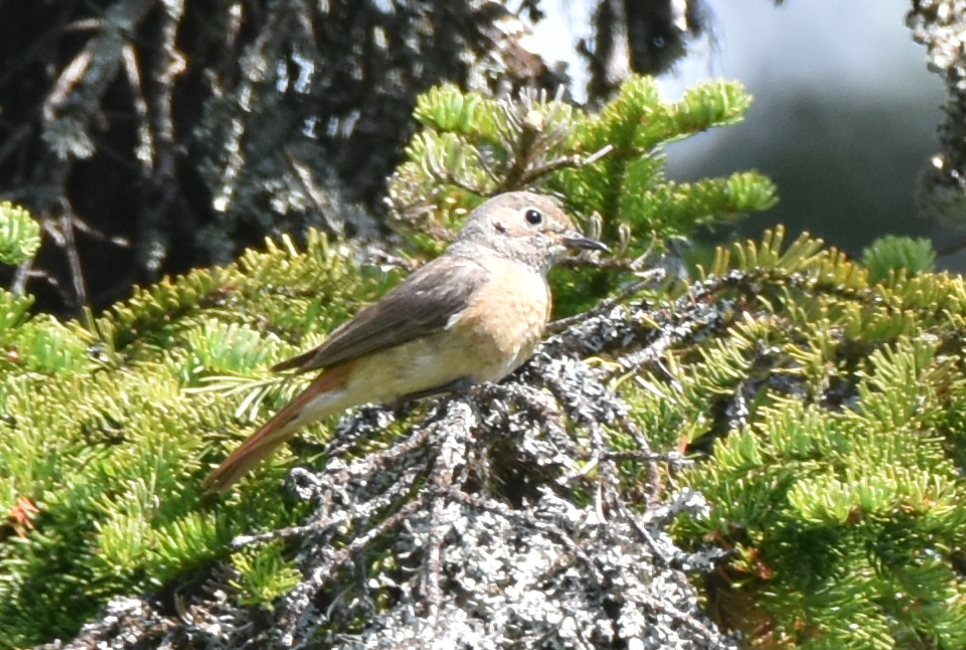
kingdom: Animalia
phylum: Chordata
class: Aves
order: Passeriformes
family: Muscicapidae
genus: Phoenicurus
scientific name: Phoenicurus phoenicurus
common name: Common redstart
